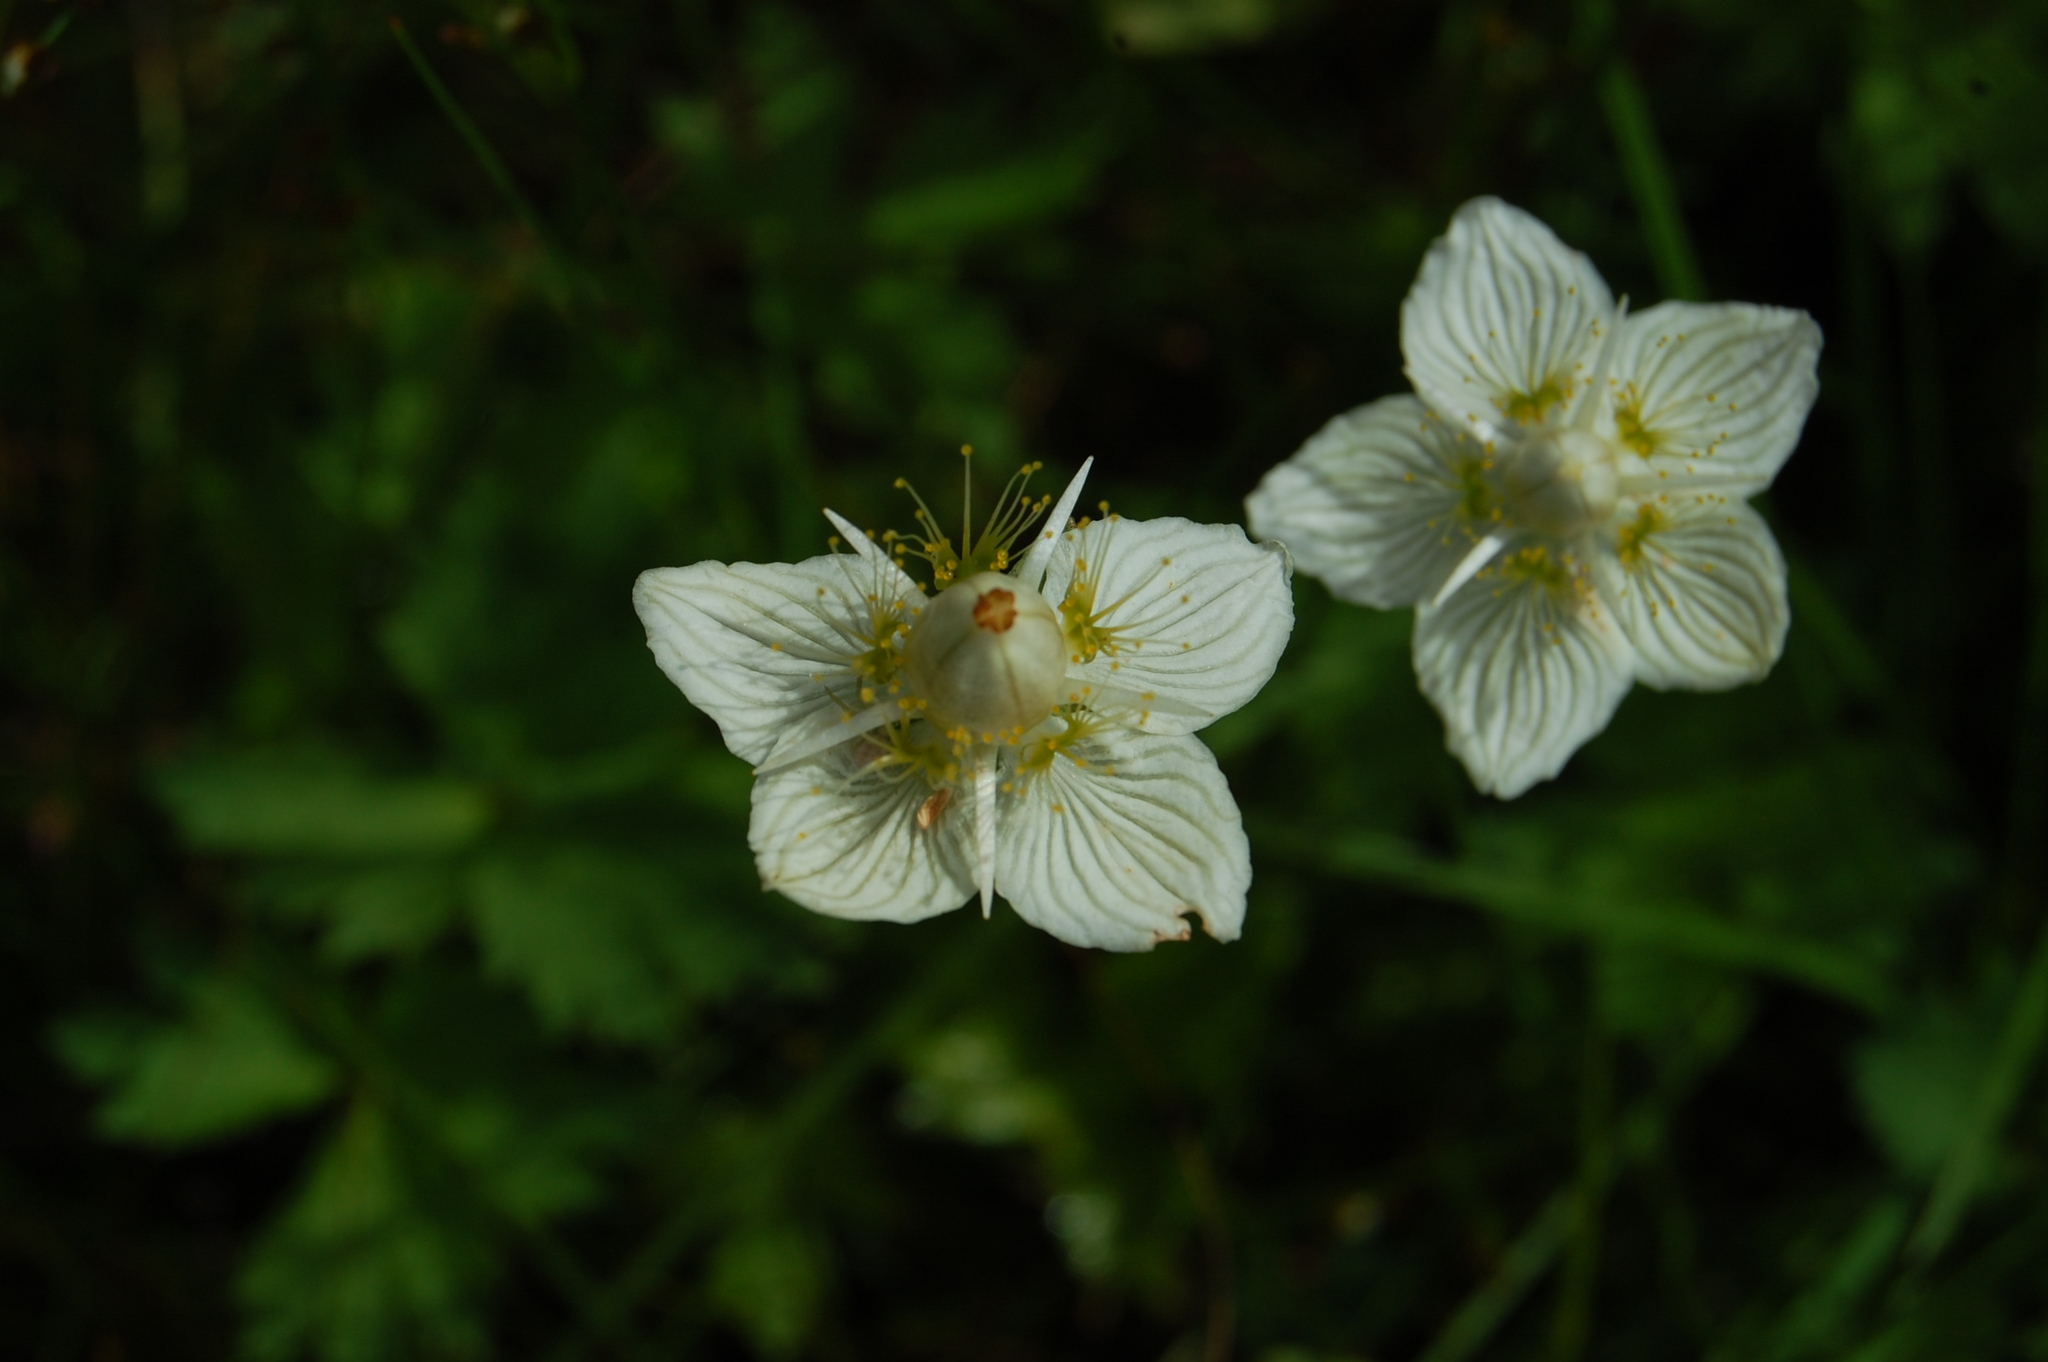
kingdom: Plantae
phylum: Tracheophyta
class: Magnoliopsida
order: Celastrales
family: Parnassiaceae
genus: Parnassia
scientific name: Parnassia palustris
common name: Grass-of-parnassus
